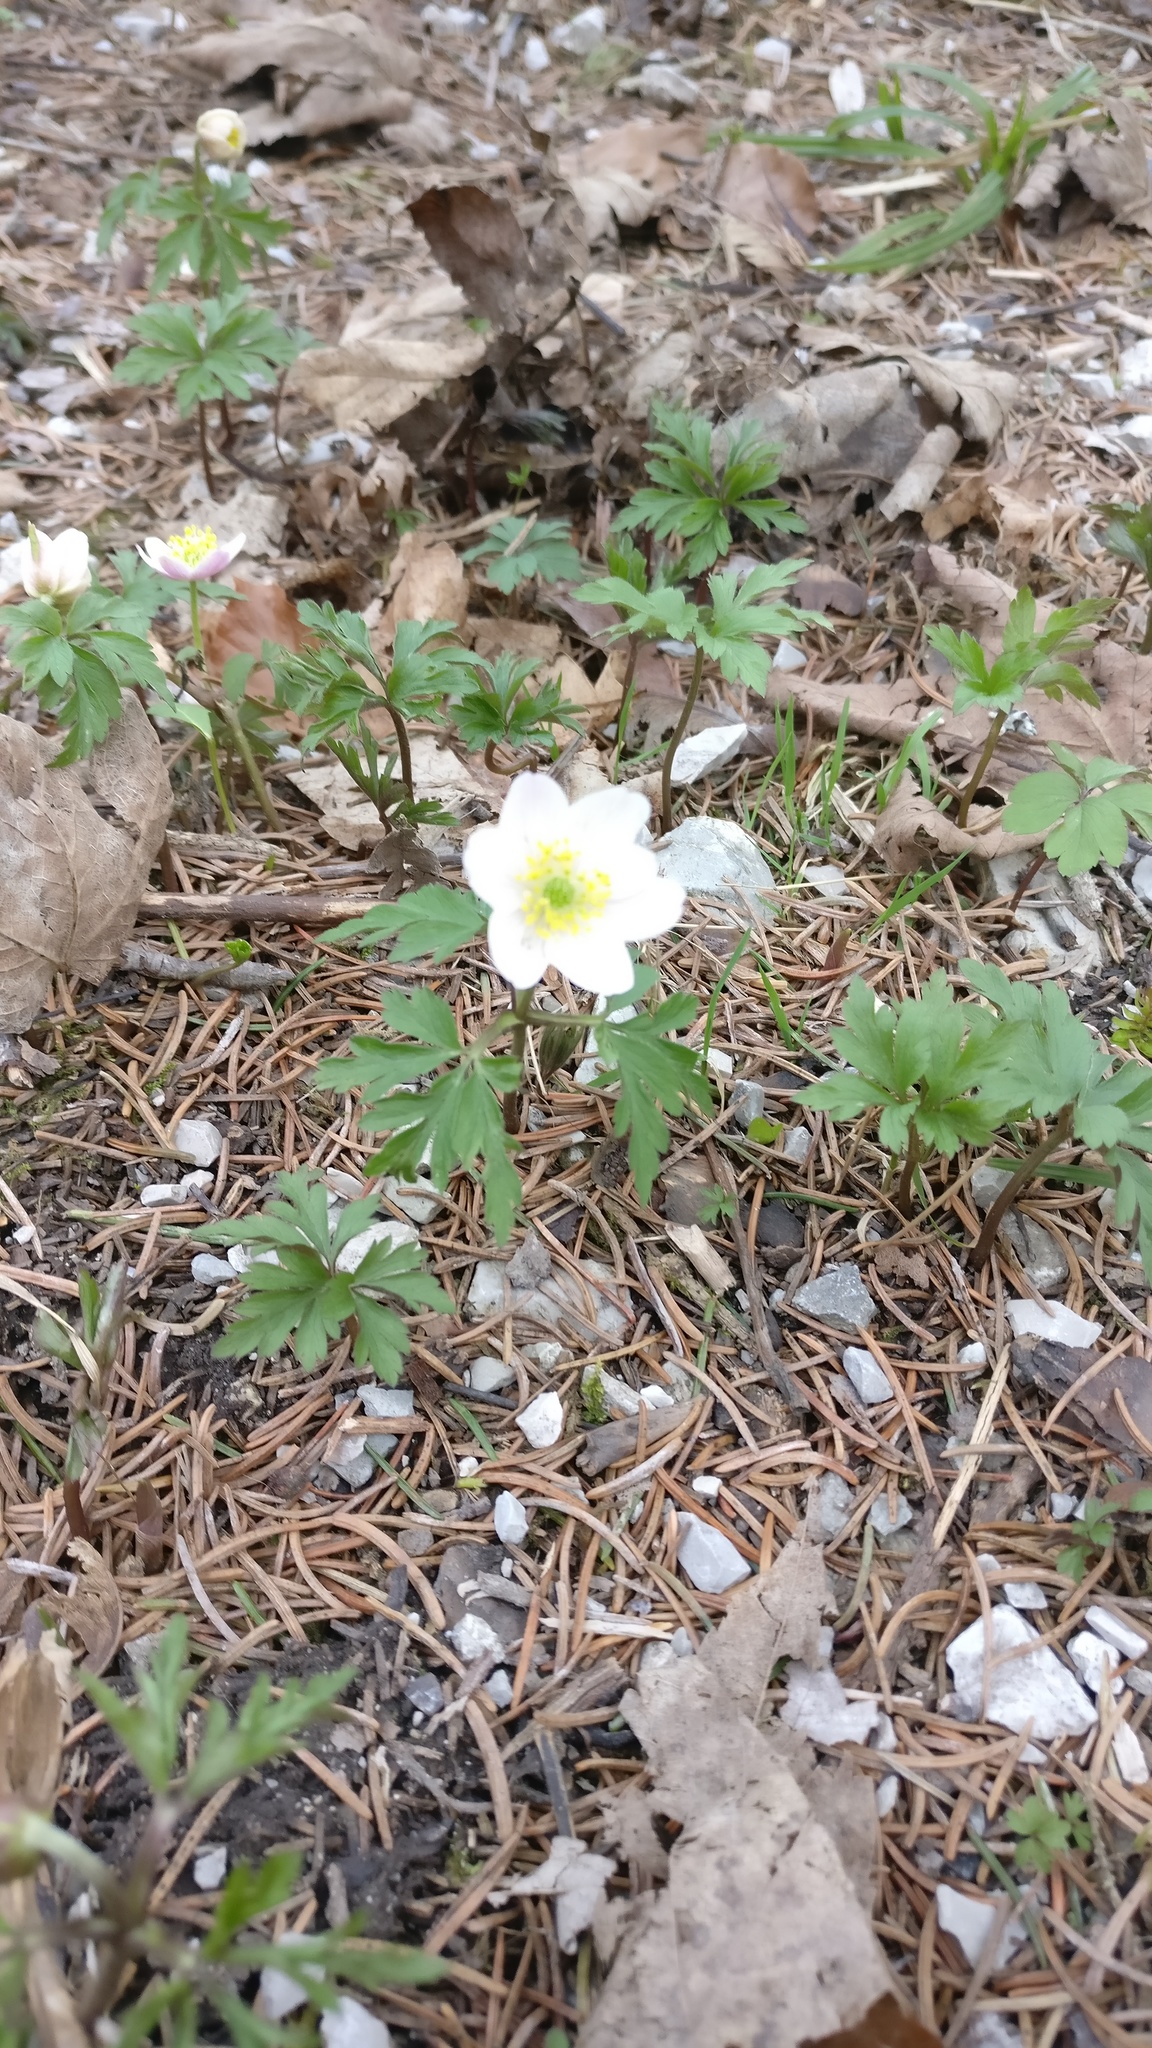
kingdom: Plantae
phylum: Tracheophyta
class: Magnoliopsida
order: Ranunculales
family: Ranunculaceae
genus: Anemone
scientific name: Anemone nemorosa
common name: Wood anemone
